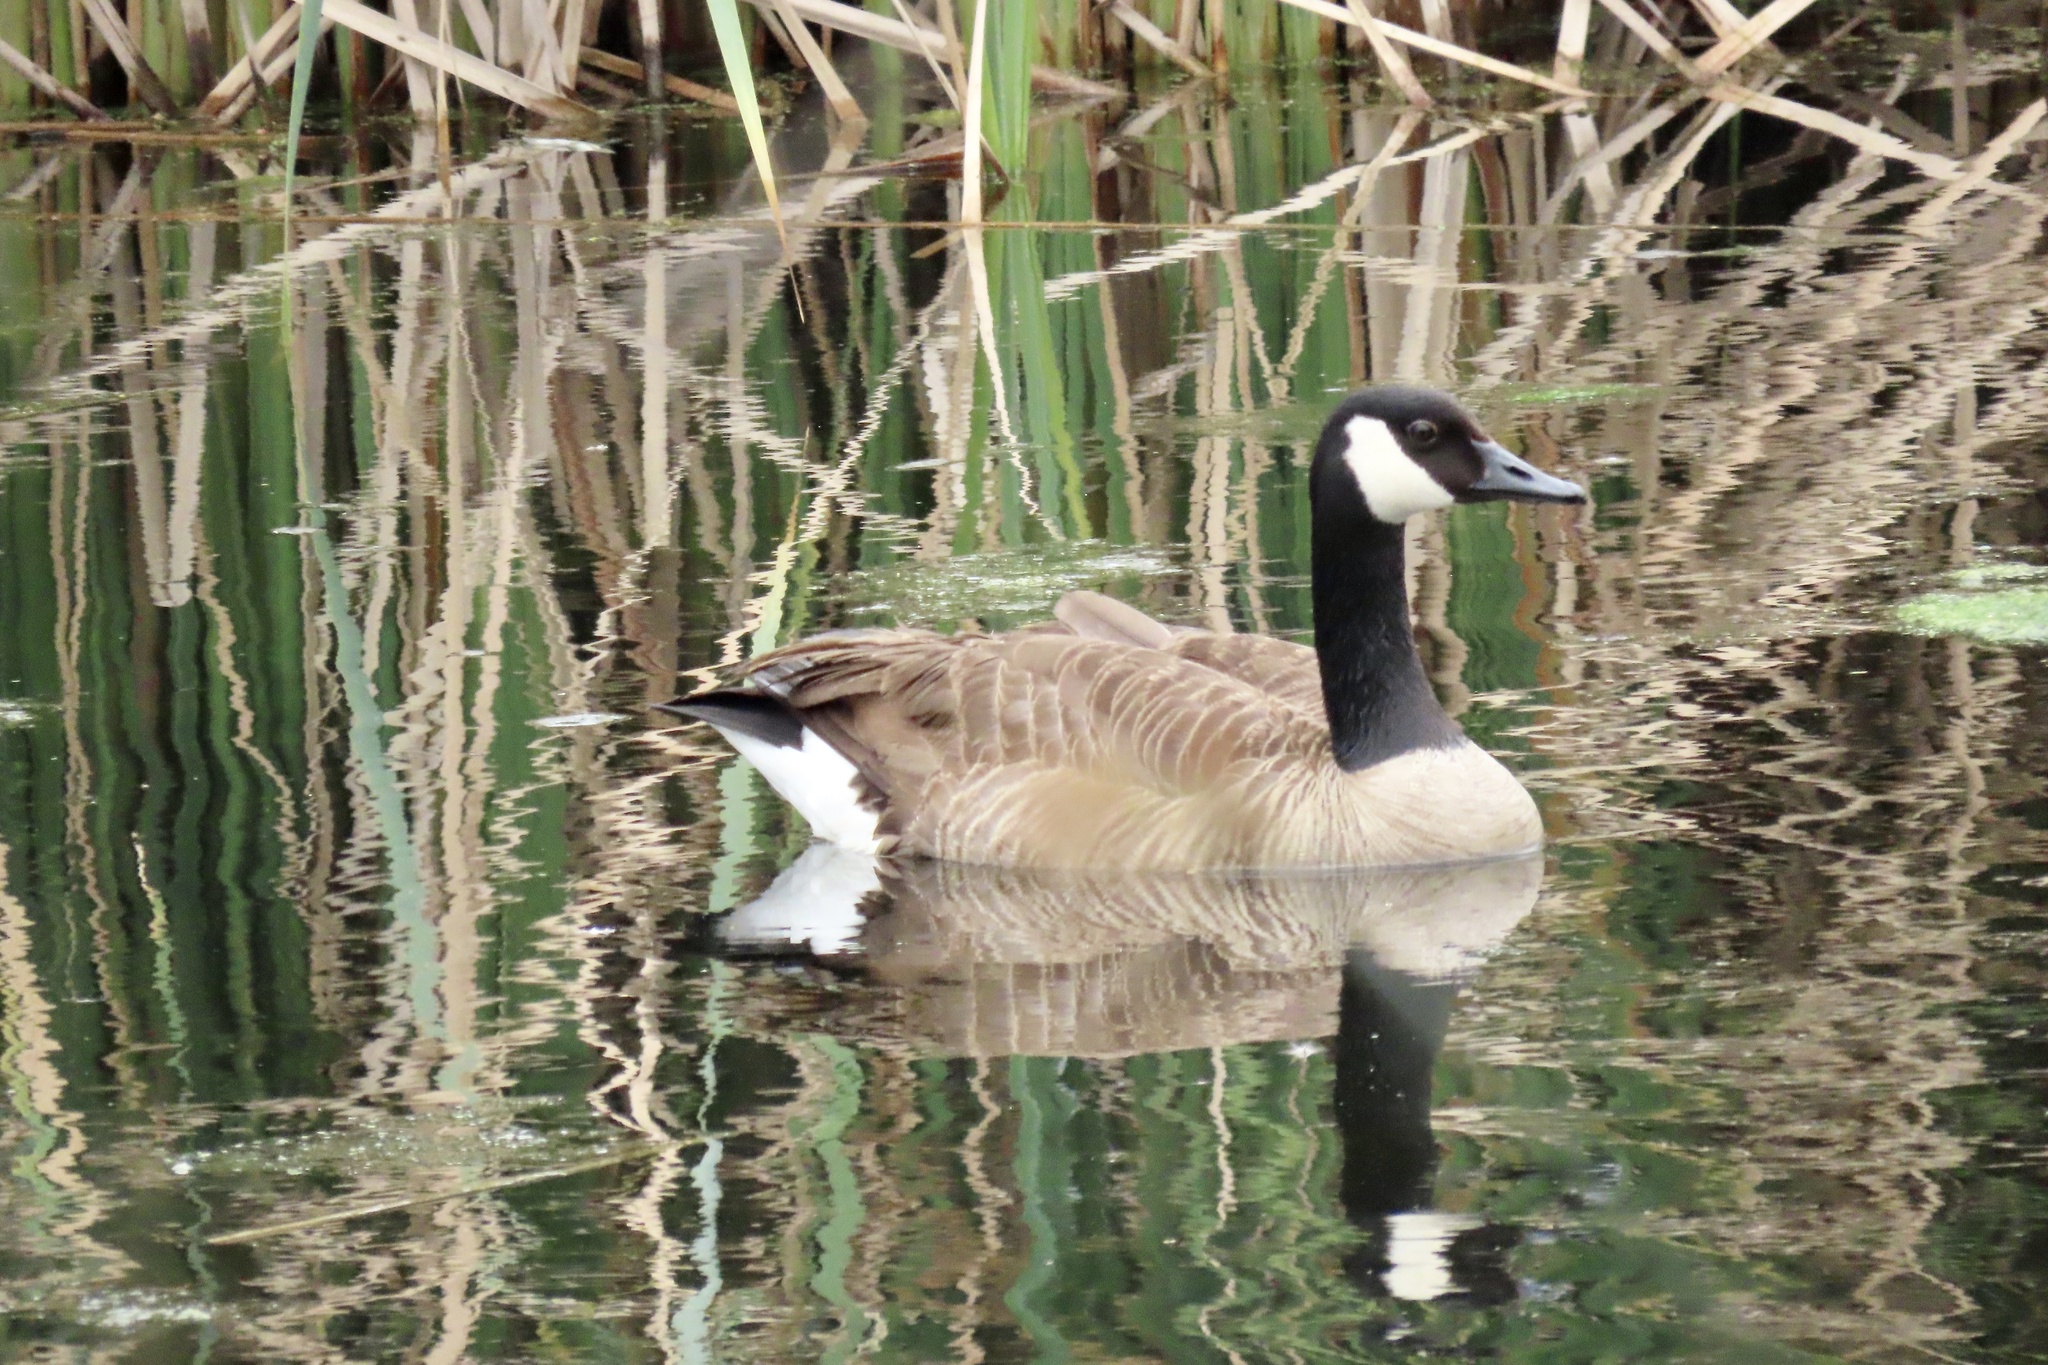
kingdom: Animalia
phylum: Chordata
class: Aves
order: Anseriformes
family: Anatidae
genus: Branta
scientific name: Branta canadensis
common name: Canada goose
